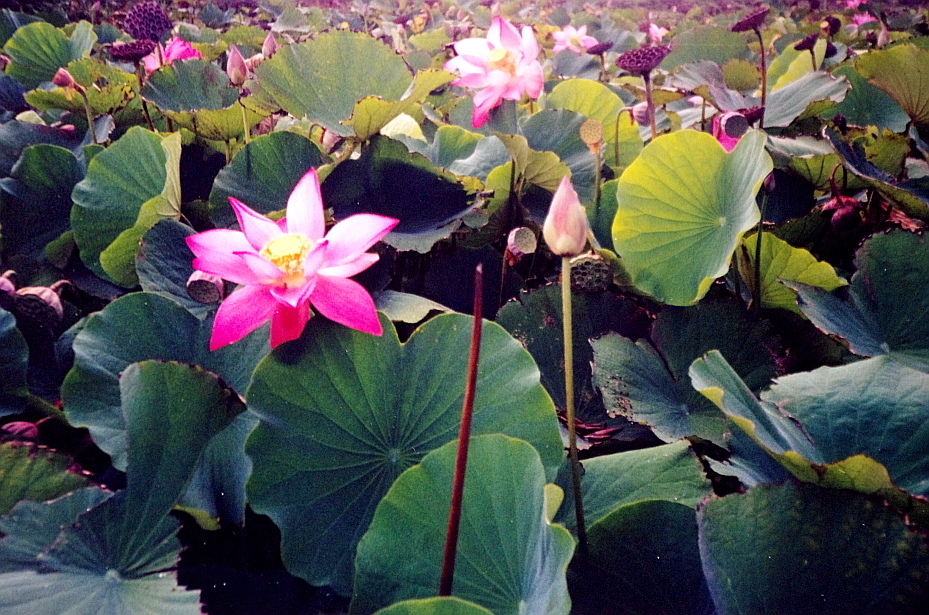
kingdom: Plantae
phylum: Tracheophyta
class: Magnoliopsida
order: Proteales
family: Nelumbonaceae
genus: Nelumbo
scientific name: Nelumbo nucifera
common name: Sacred lotus
